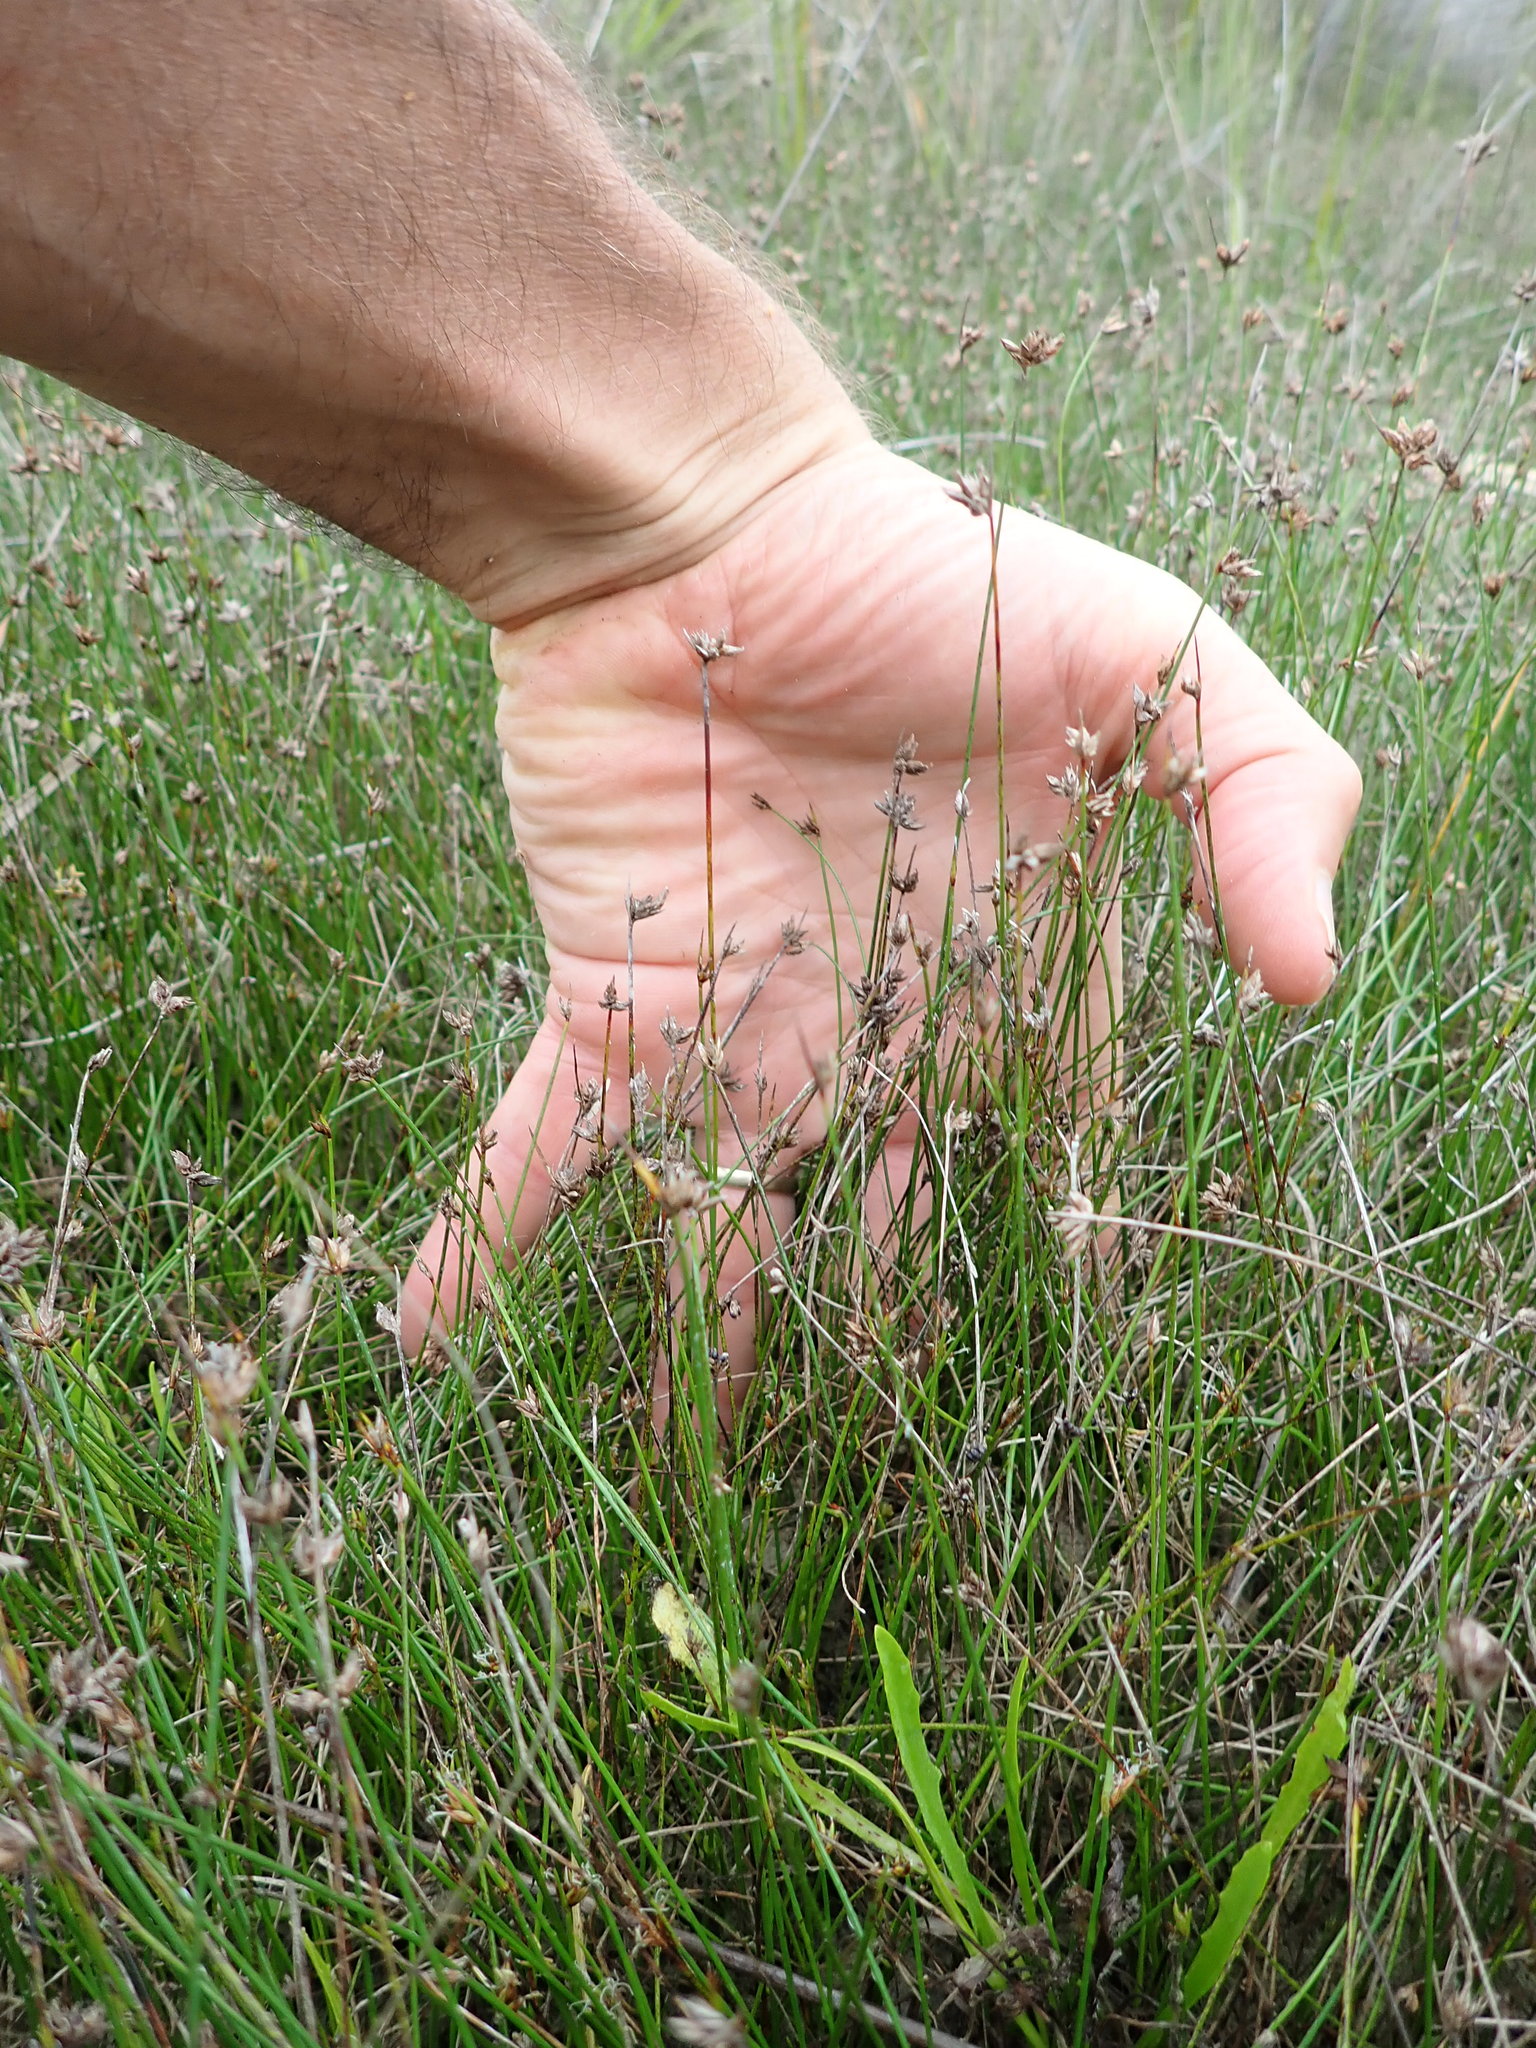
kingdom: Plantae
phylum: Tracheophyta
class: Liliopsida
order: Poales
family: Cyperaceae
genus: Schoenus
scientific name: Schoenus nitens
